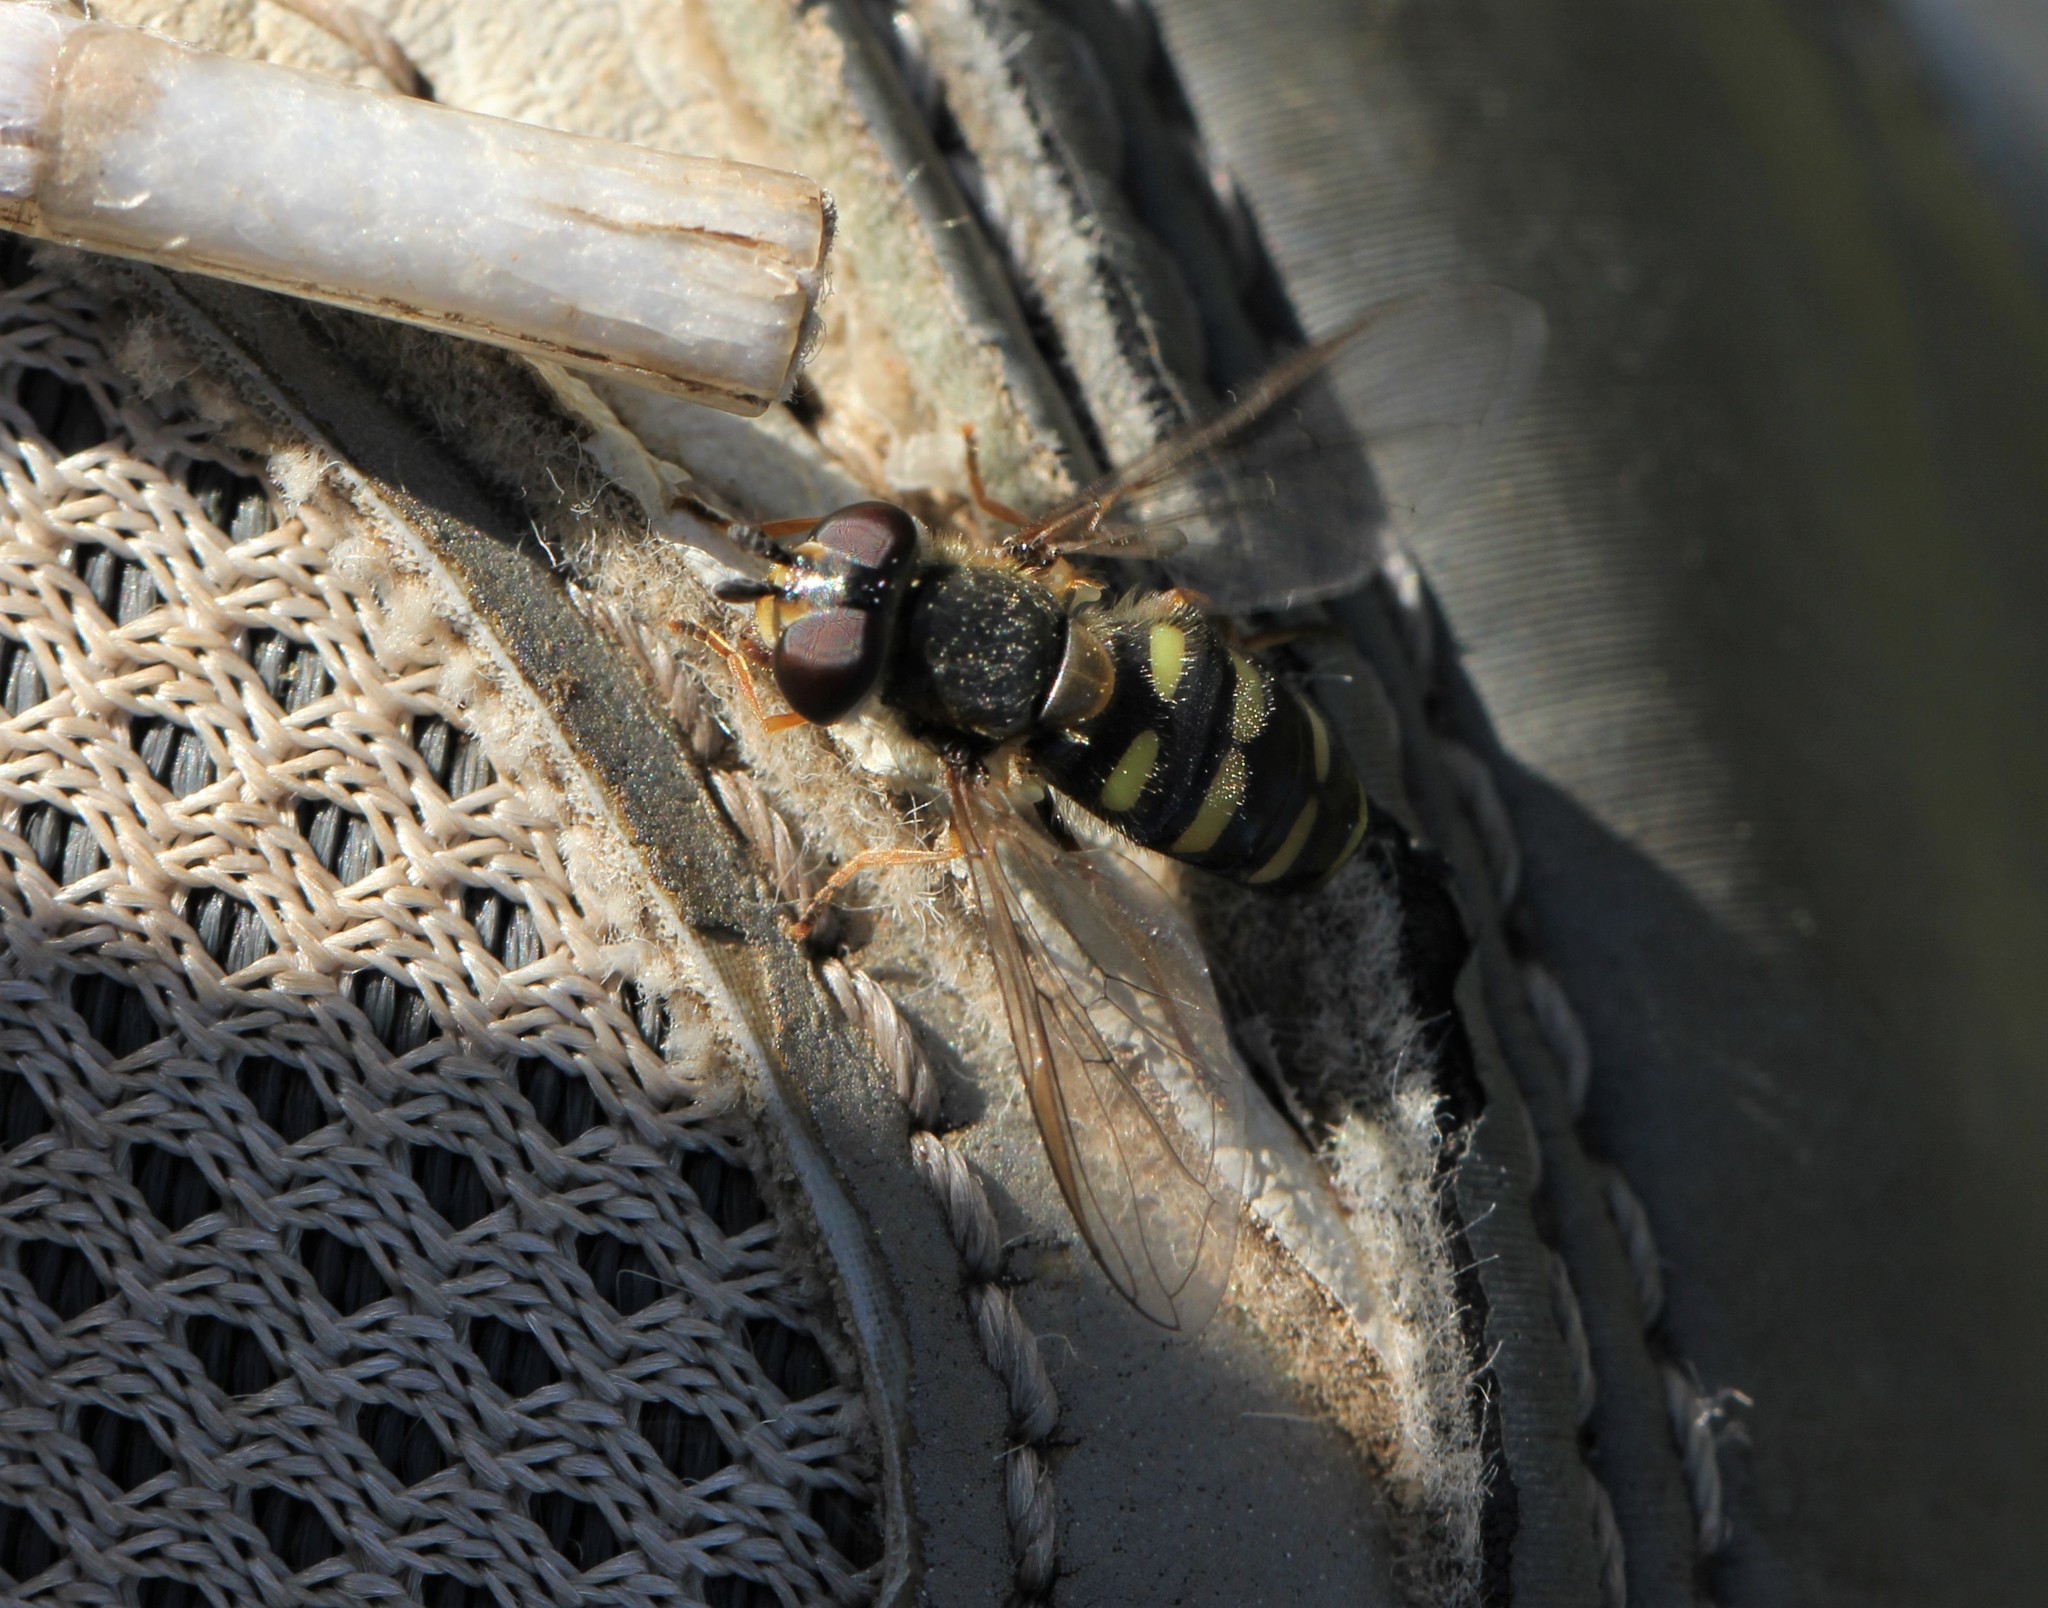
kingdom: Animalia
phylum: Arthropoda
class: Insecta
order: Diptera
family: Syrphidae
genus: Eupeodes
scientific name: Eupeodes
